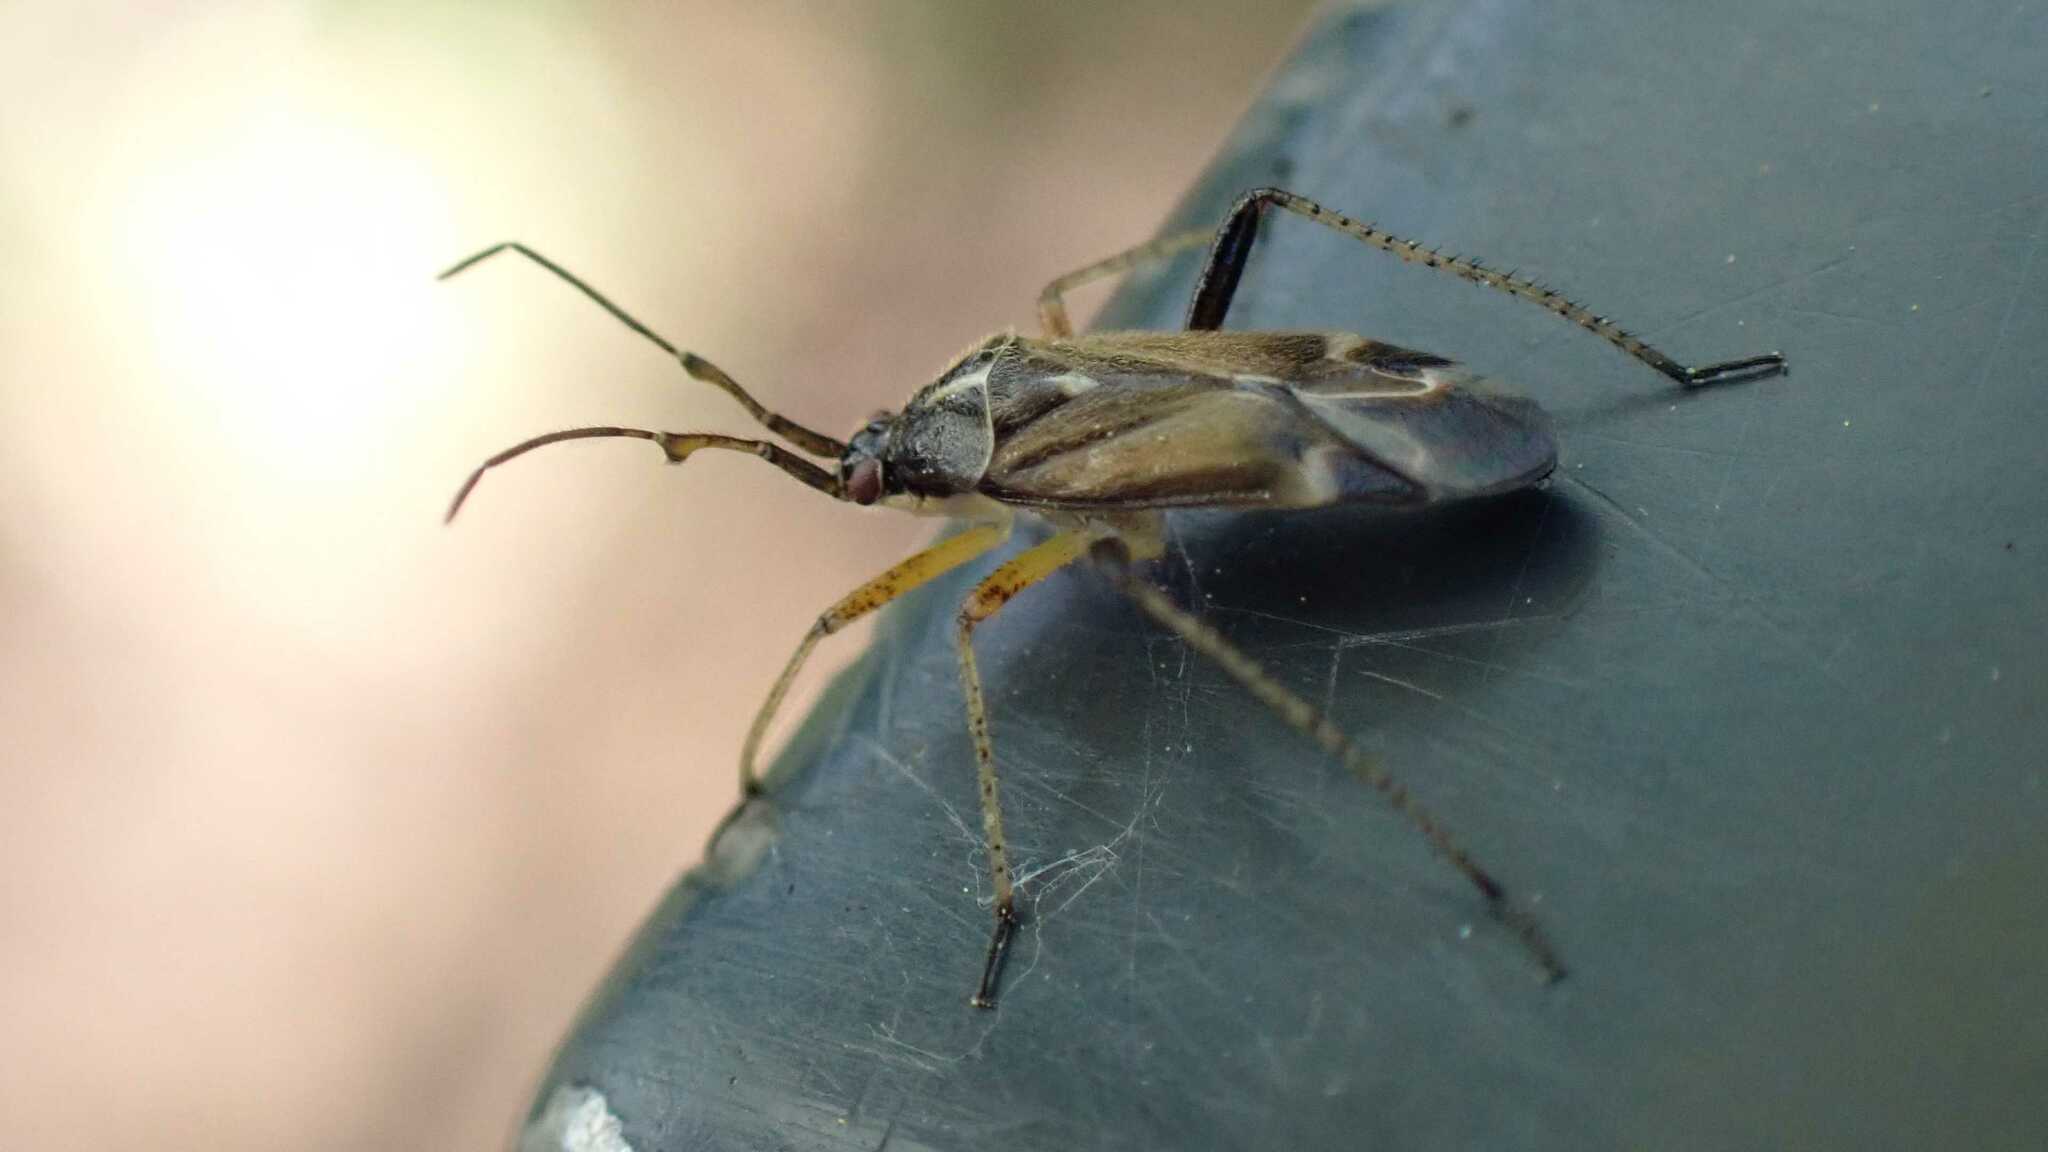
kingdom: Animalia
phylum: Arthropoda
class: Insecta
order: Hemiptera
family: Miridae
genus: Harpocera
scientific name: Harpocera thoracica
